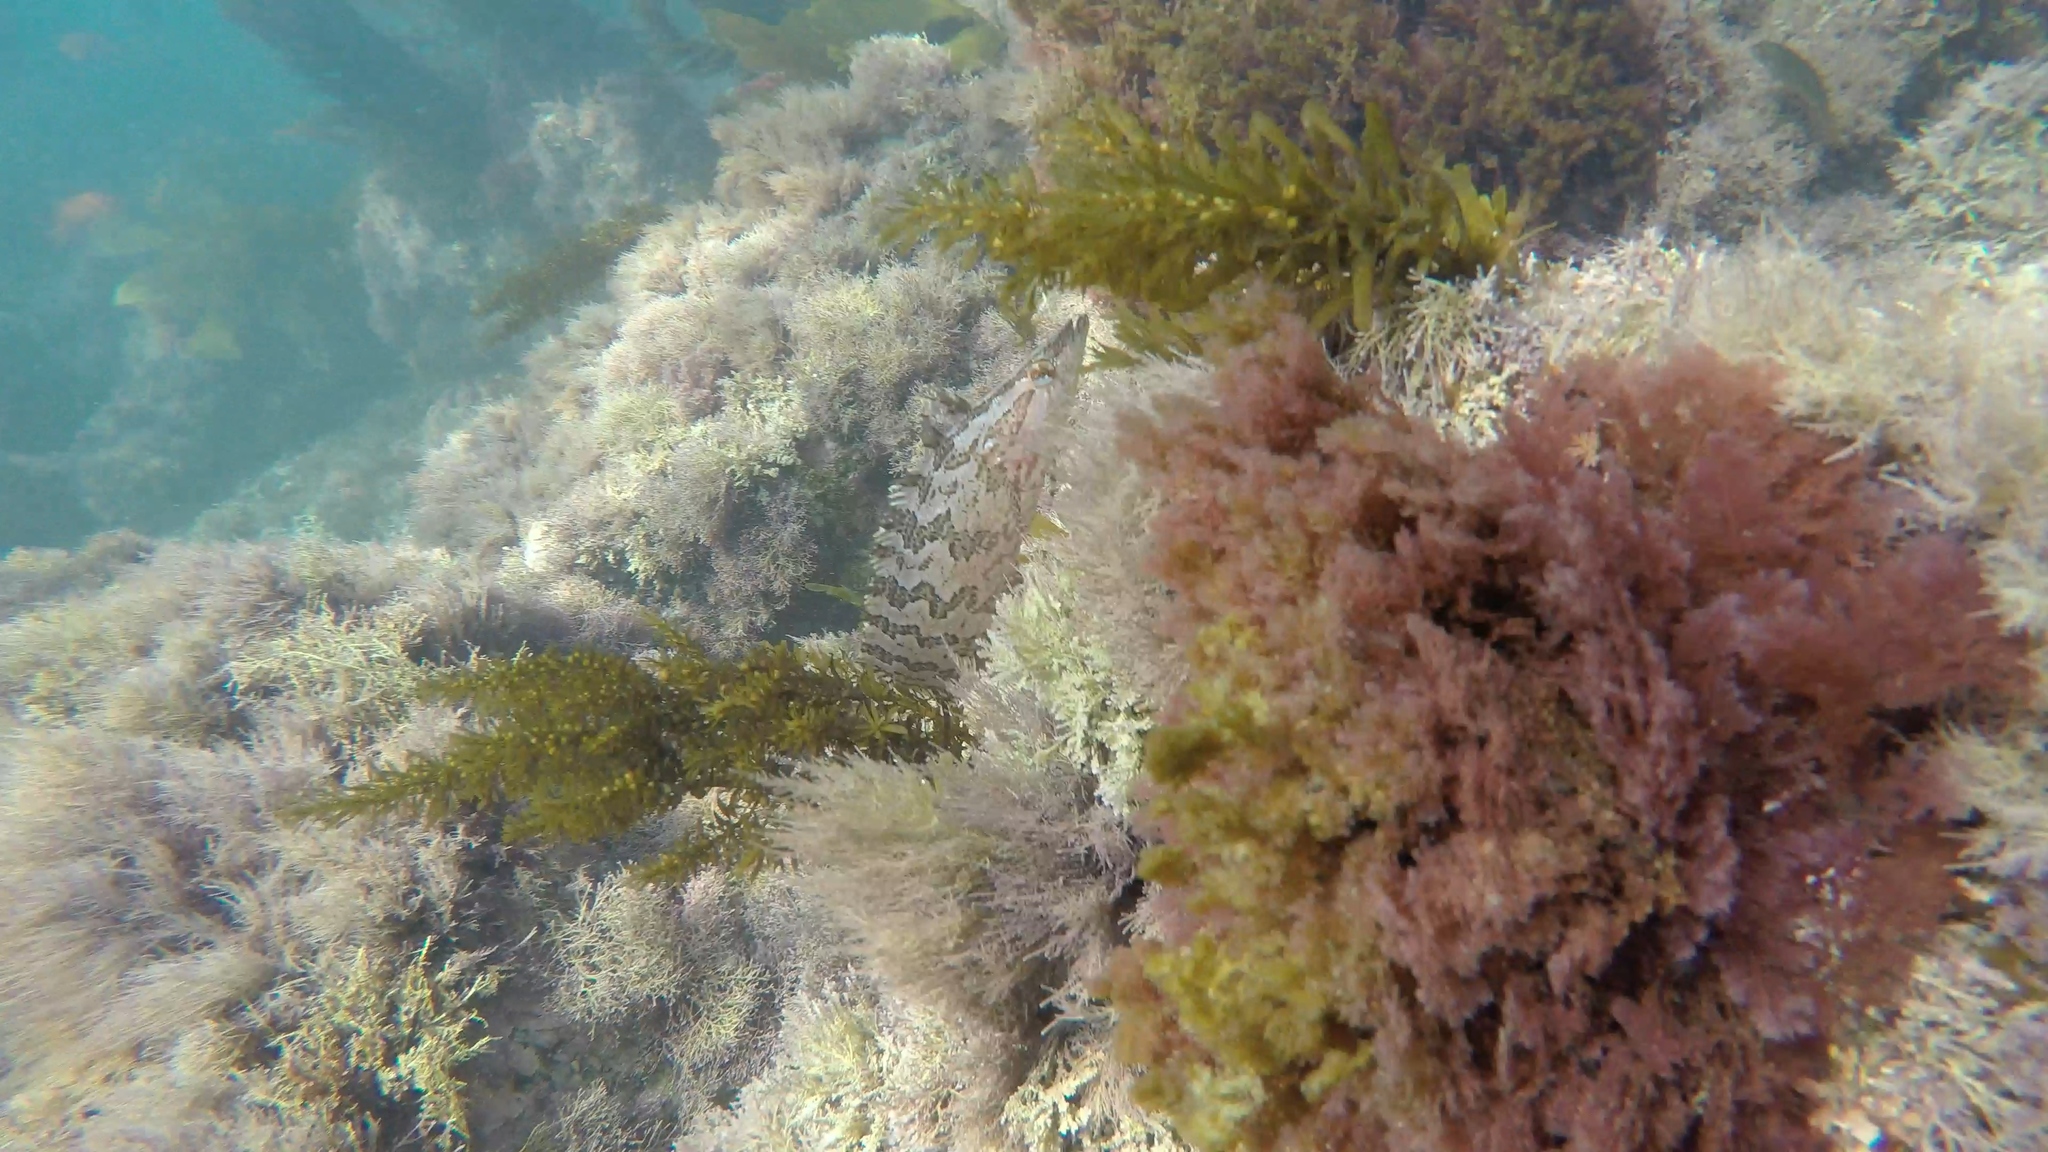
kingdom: Animalia
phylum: Chordata
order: Perciformes
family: Clinidae
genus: Heterostichus
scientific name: Heterostichus rostratus
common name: Giant kelpfish
